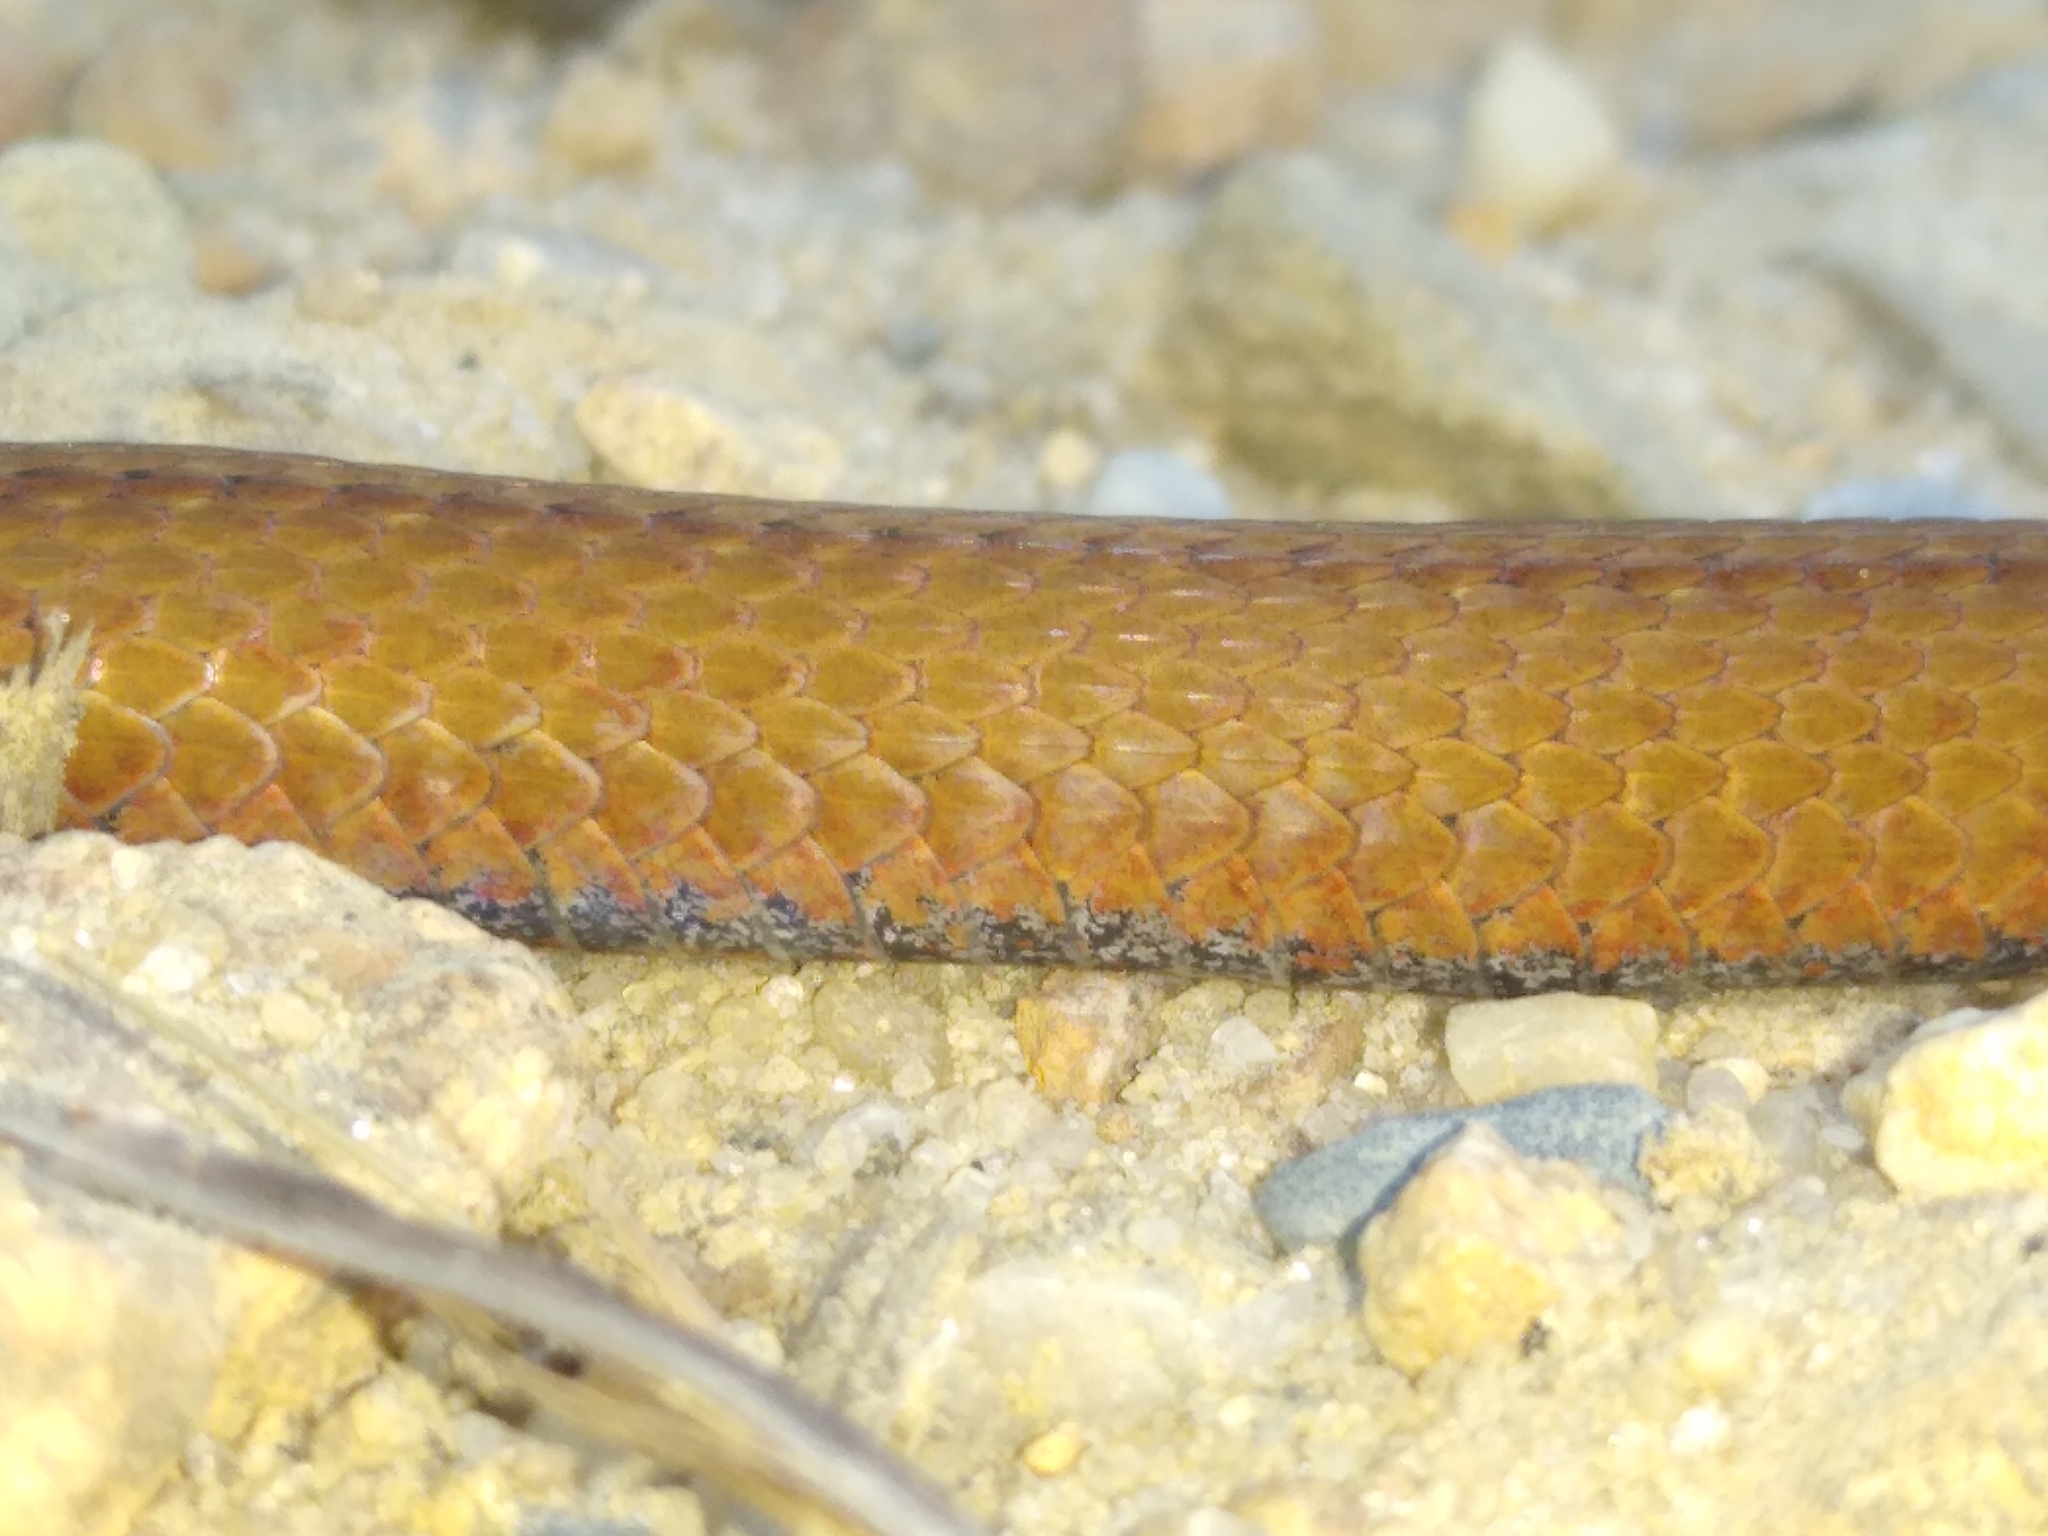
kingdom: Animalia
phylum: Chordata
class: Squamata
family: Colubridae
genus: Storeria
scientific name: Storeria occipitomaculata
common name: Redbelly snake
